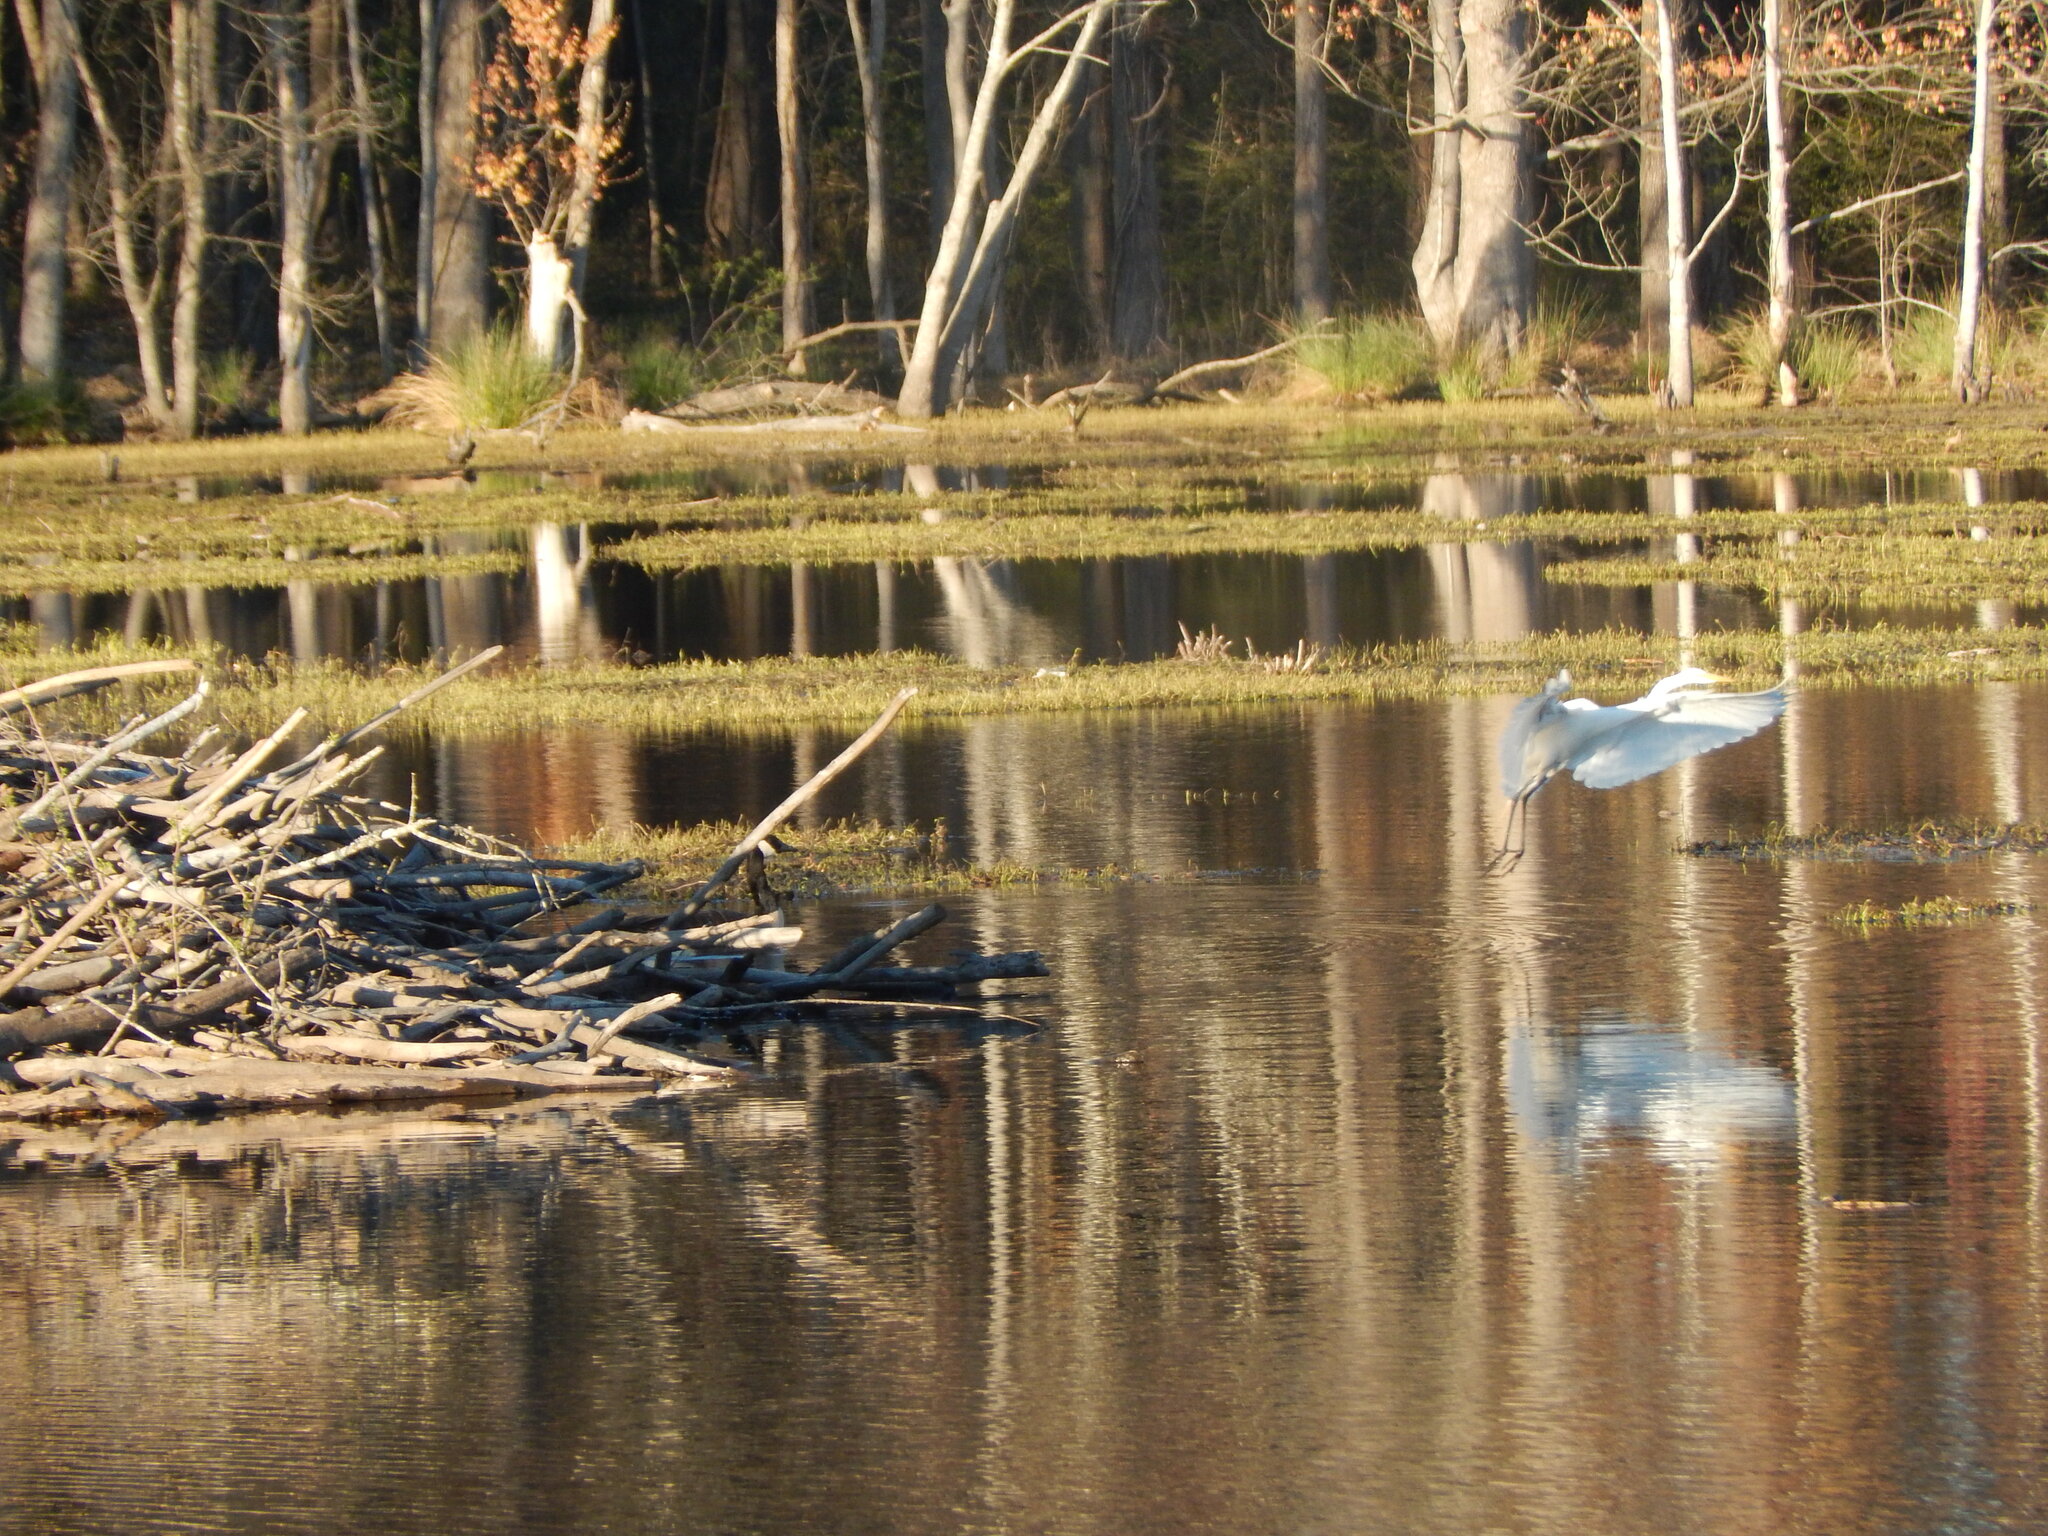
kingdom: Animalia
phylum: Chordata
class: Aves
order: Pelecaniformes
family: Ardeidae
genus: Ardea
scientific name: Ardea alba
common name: Great egret
